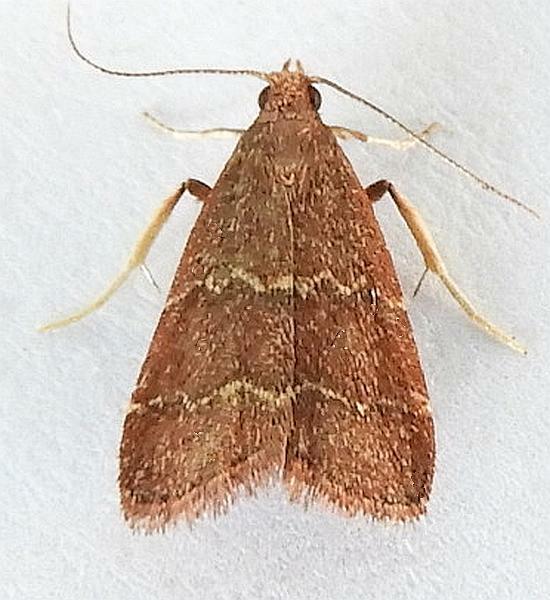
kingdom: Animalia
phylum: Arthropoda
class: Insecta
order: Lepidoptera
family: Pyralidae
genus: Arta
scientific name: Arta
